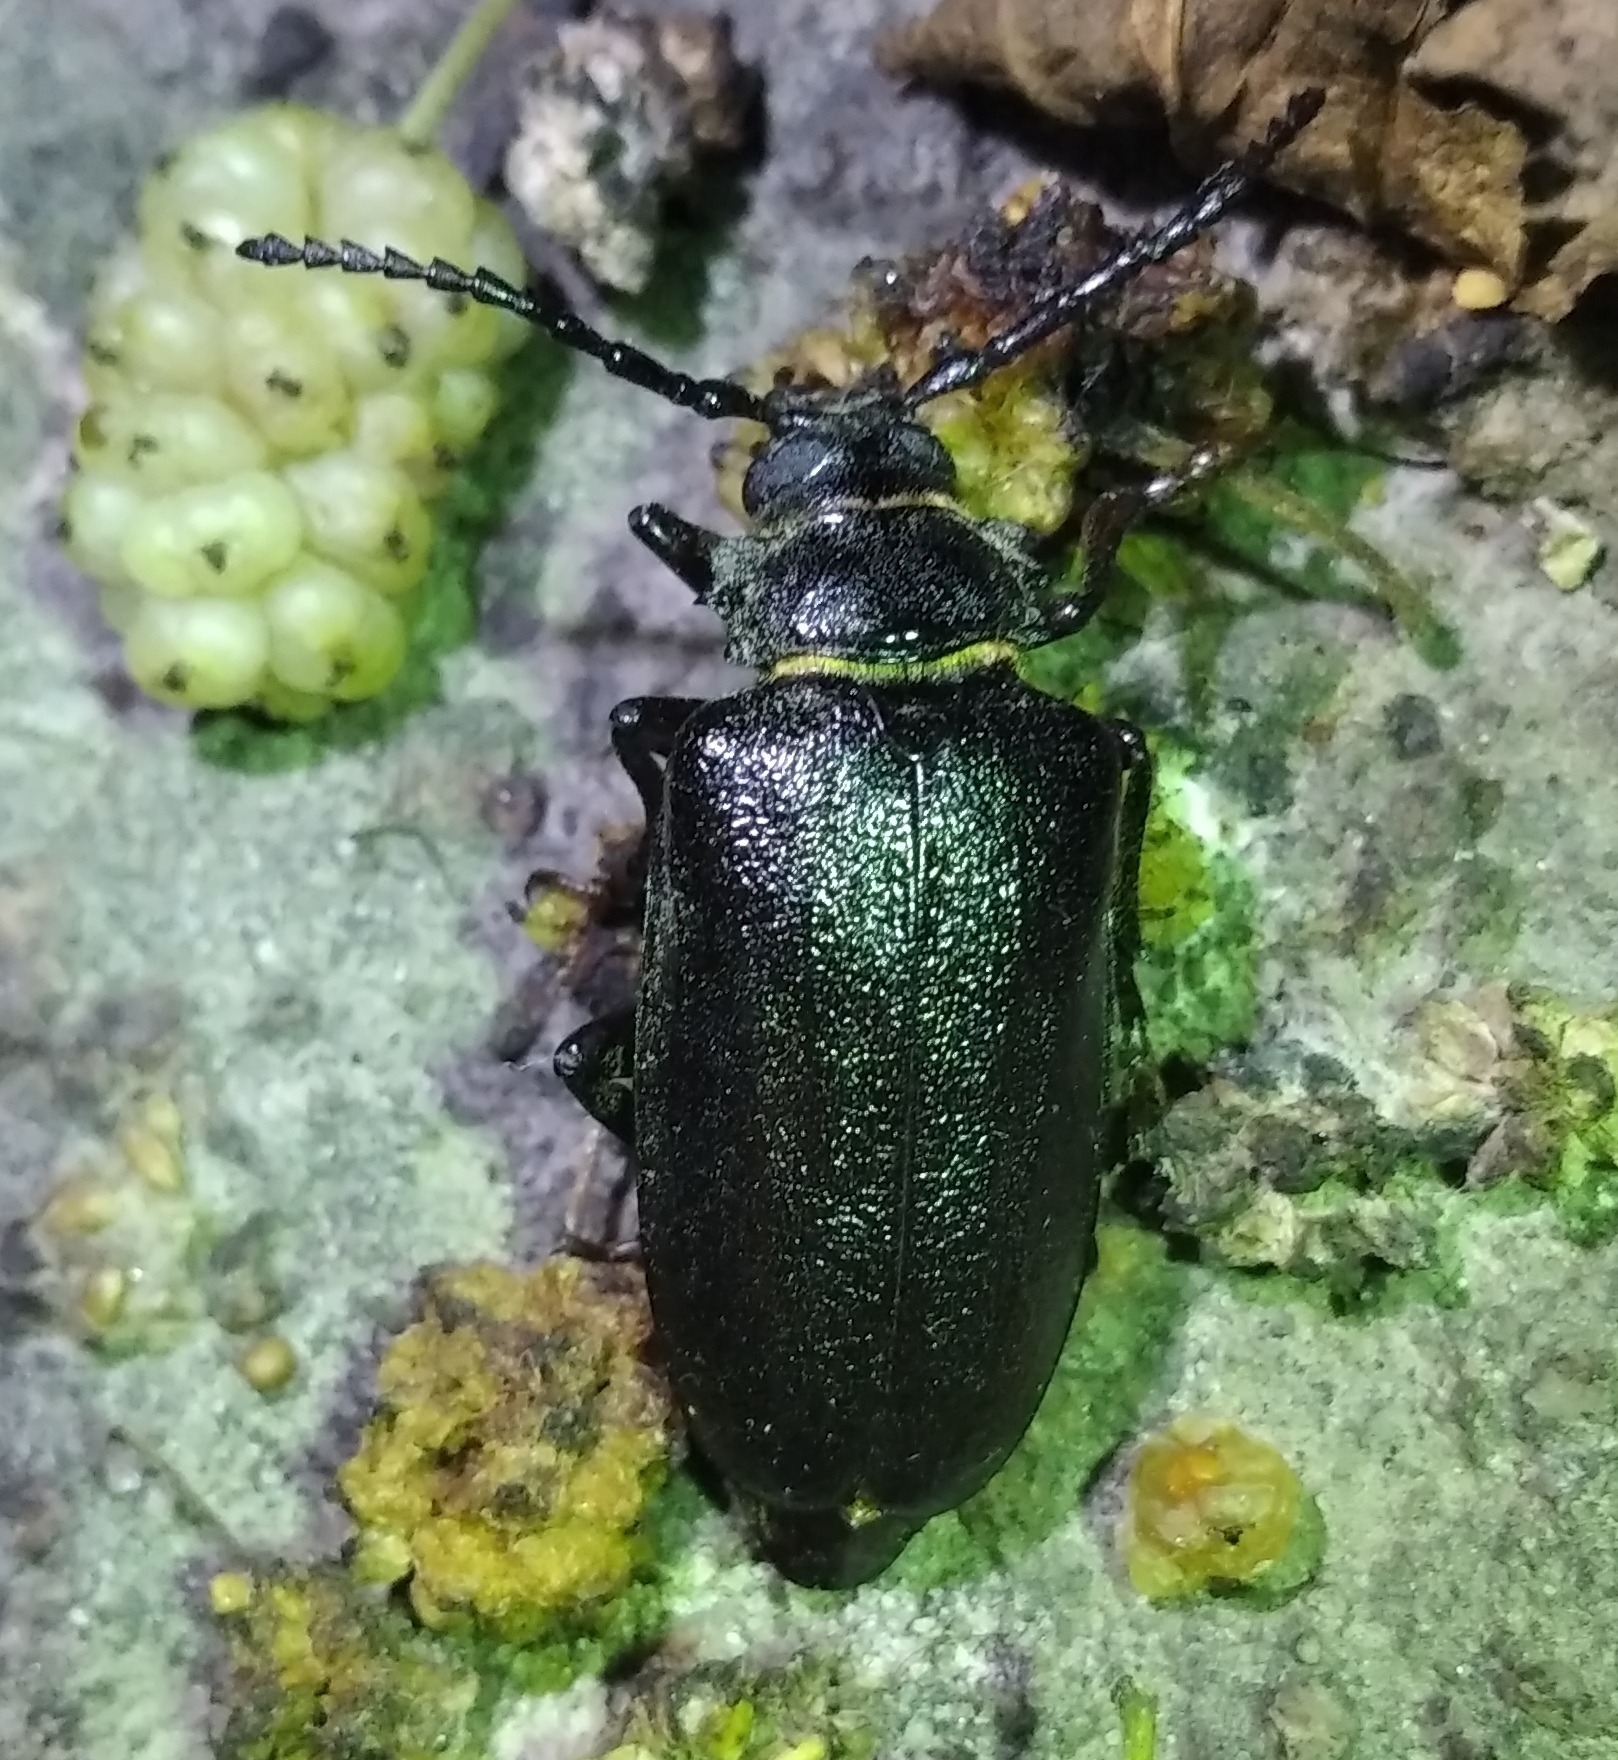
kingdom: Animalia
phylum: Arthropoda
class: Insecta
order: Coleoptera
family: Cerambycidae
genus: Prionus
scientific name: Prionus coriarius
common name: Tanner beetle
